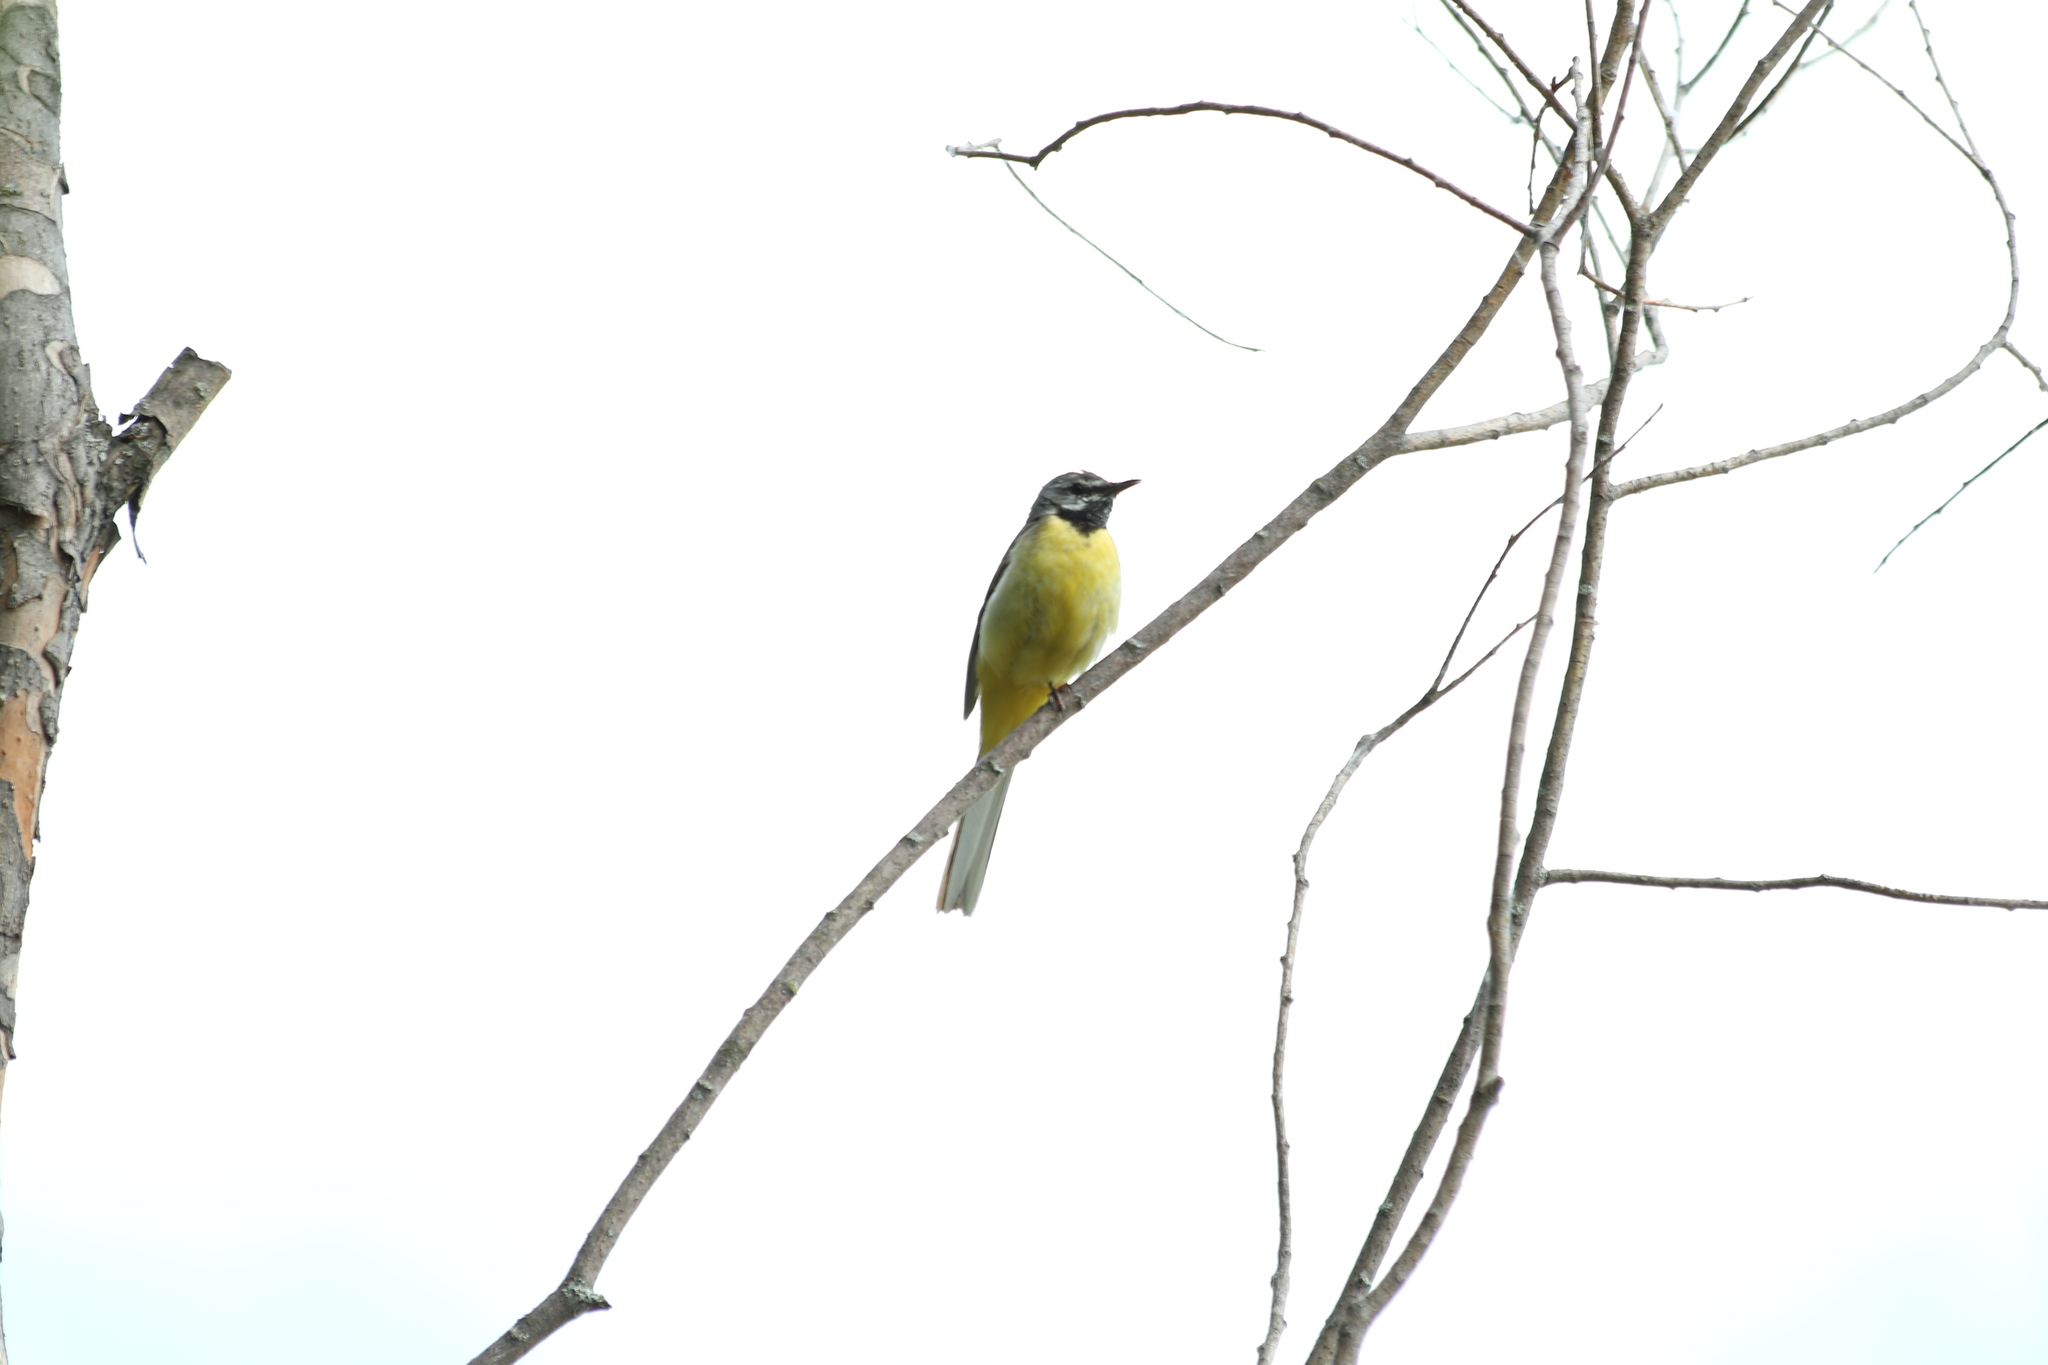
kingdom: Animalia
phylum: Chordata
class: Aves
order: Passeriformes
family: Motacillidae
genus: Motacilla
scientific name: Motacilla cinerea
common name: Grey wagtail
